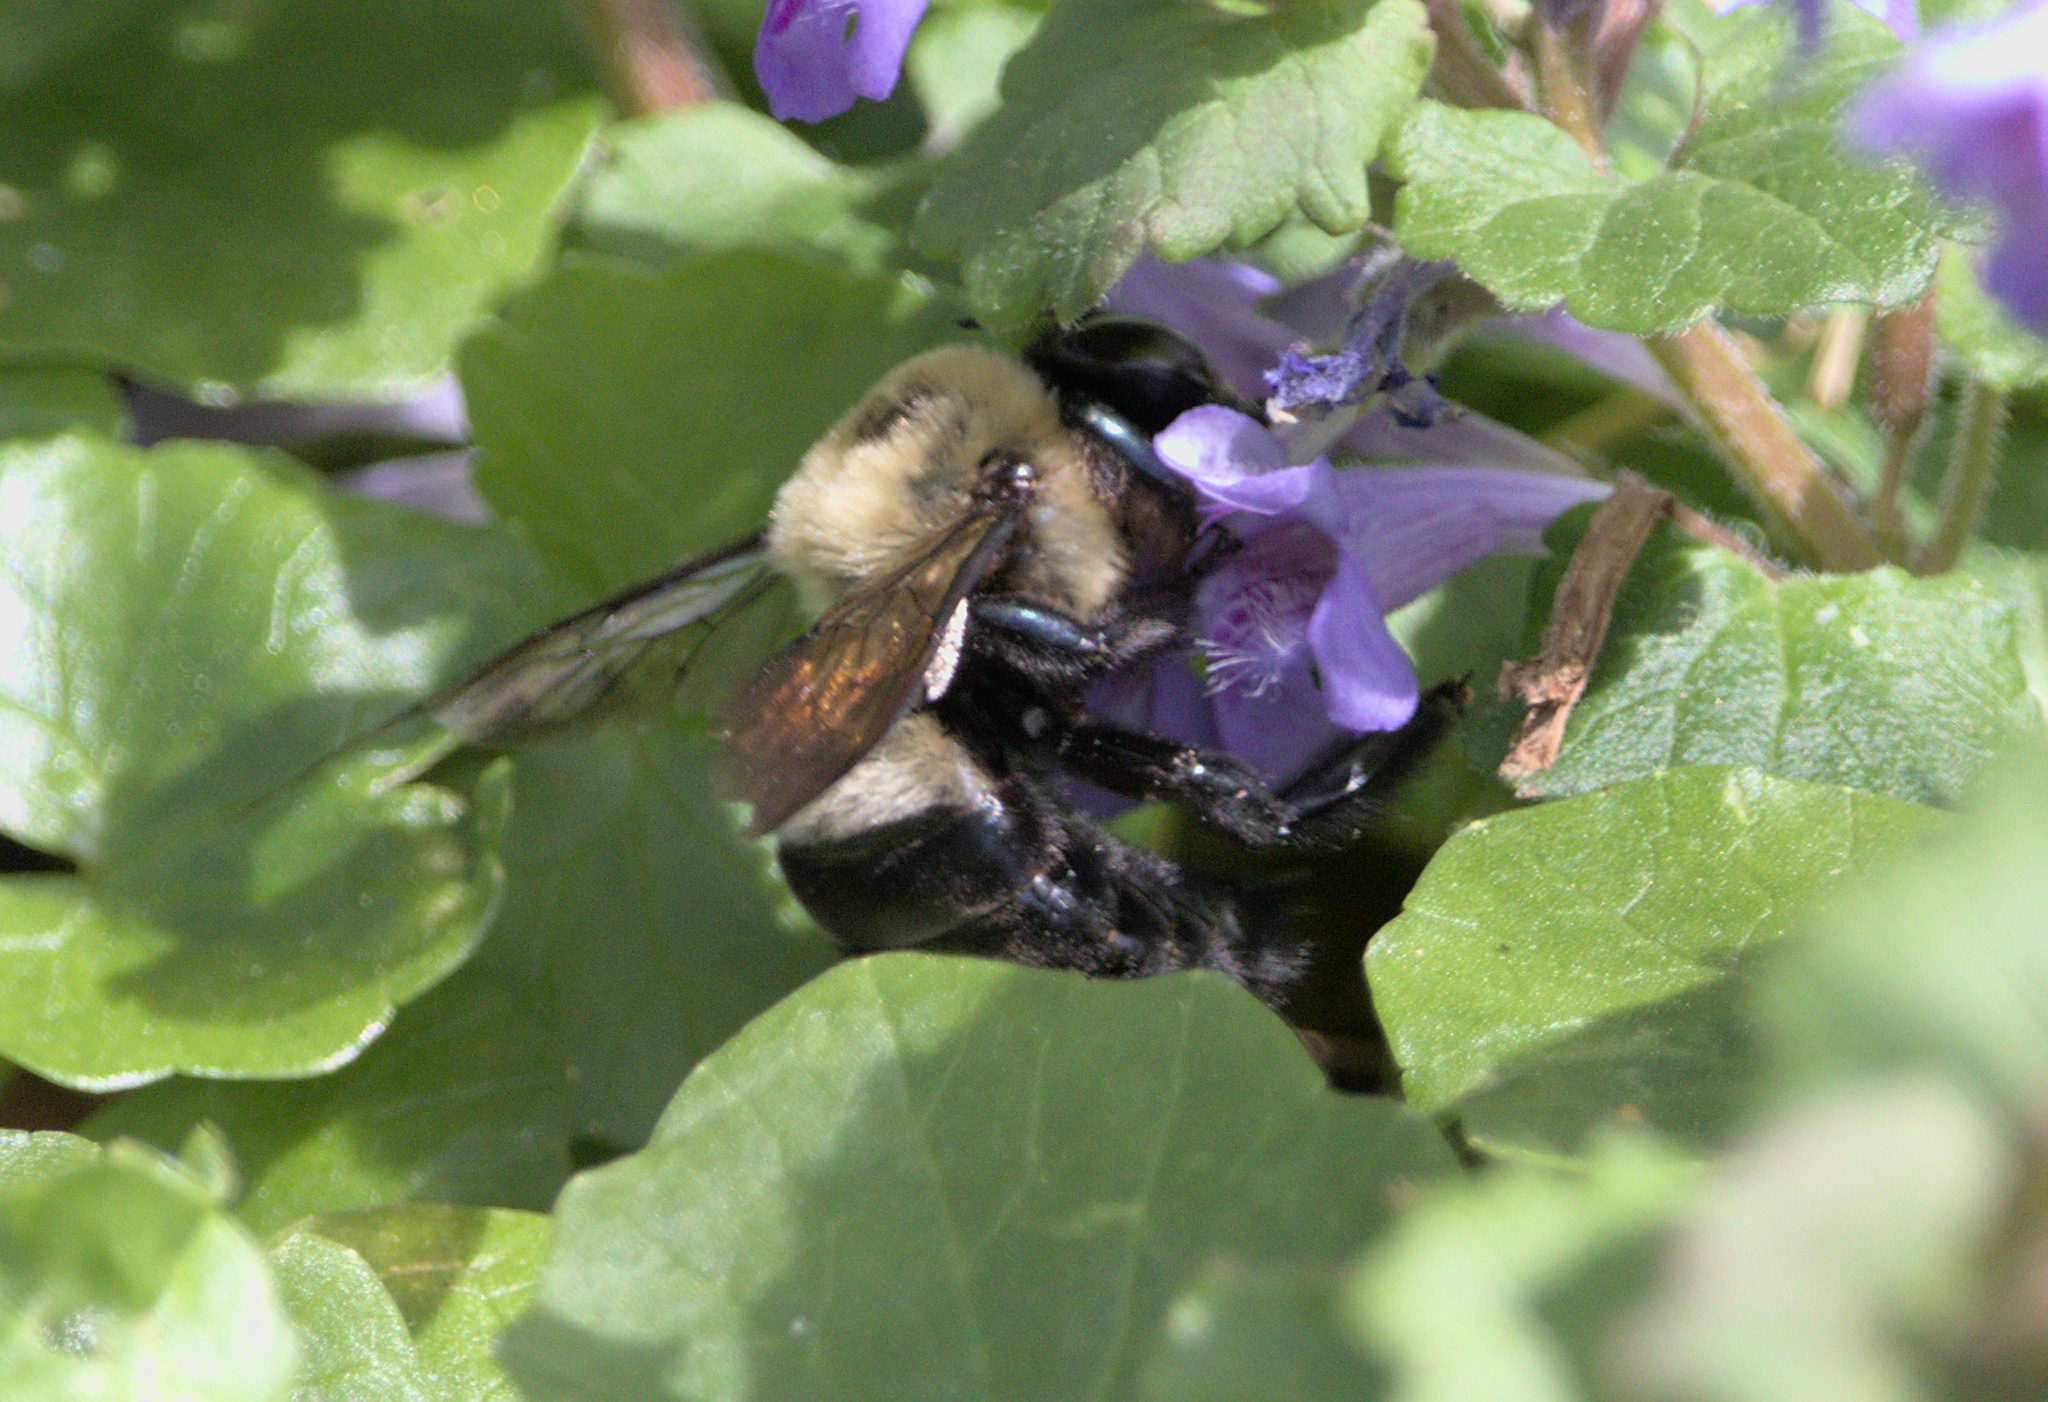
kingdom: Animalia
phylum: Arthropoda
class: Insecta
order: Hymenoptera
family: Apidae
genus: Xylocopa
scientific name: Xylocopa virginica
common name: Carpenter bee
